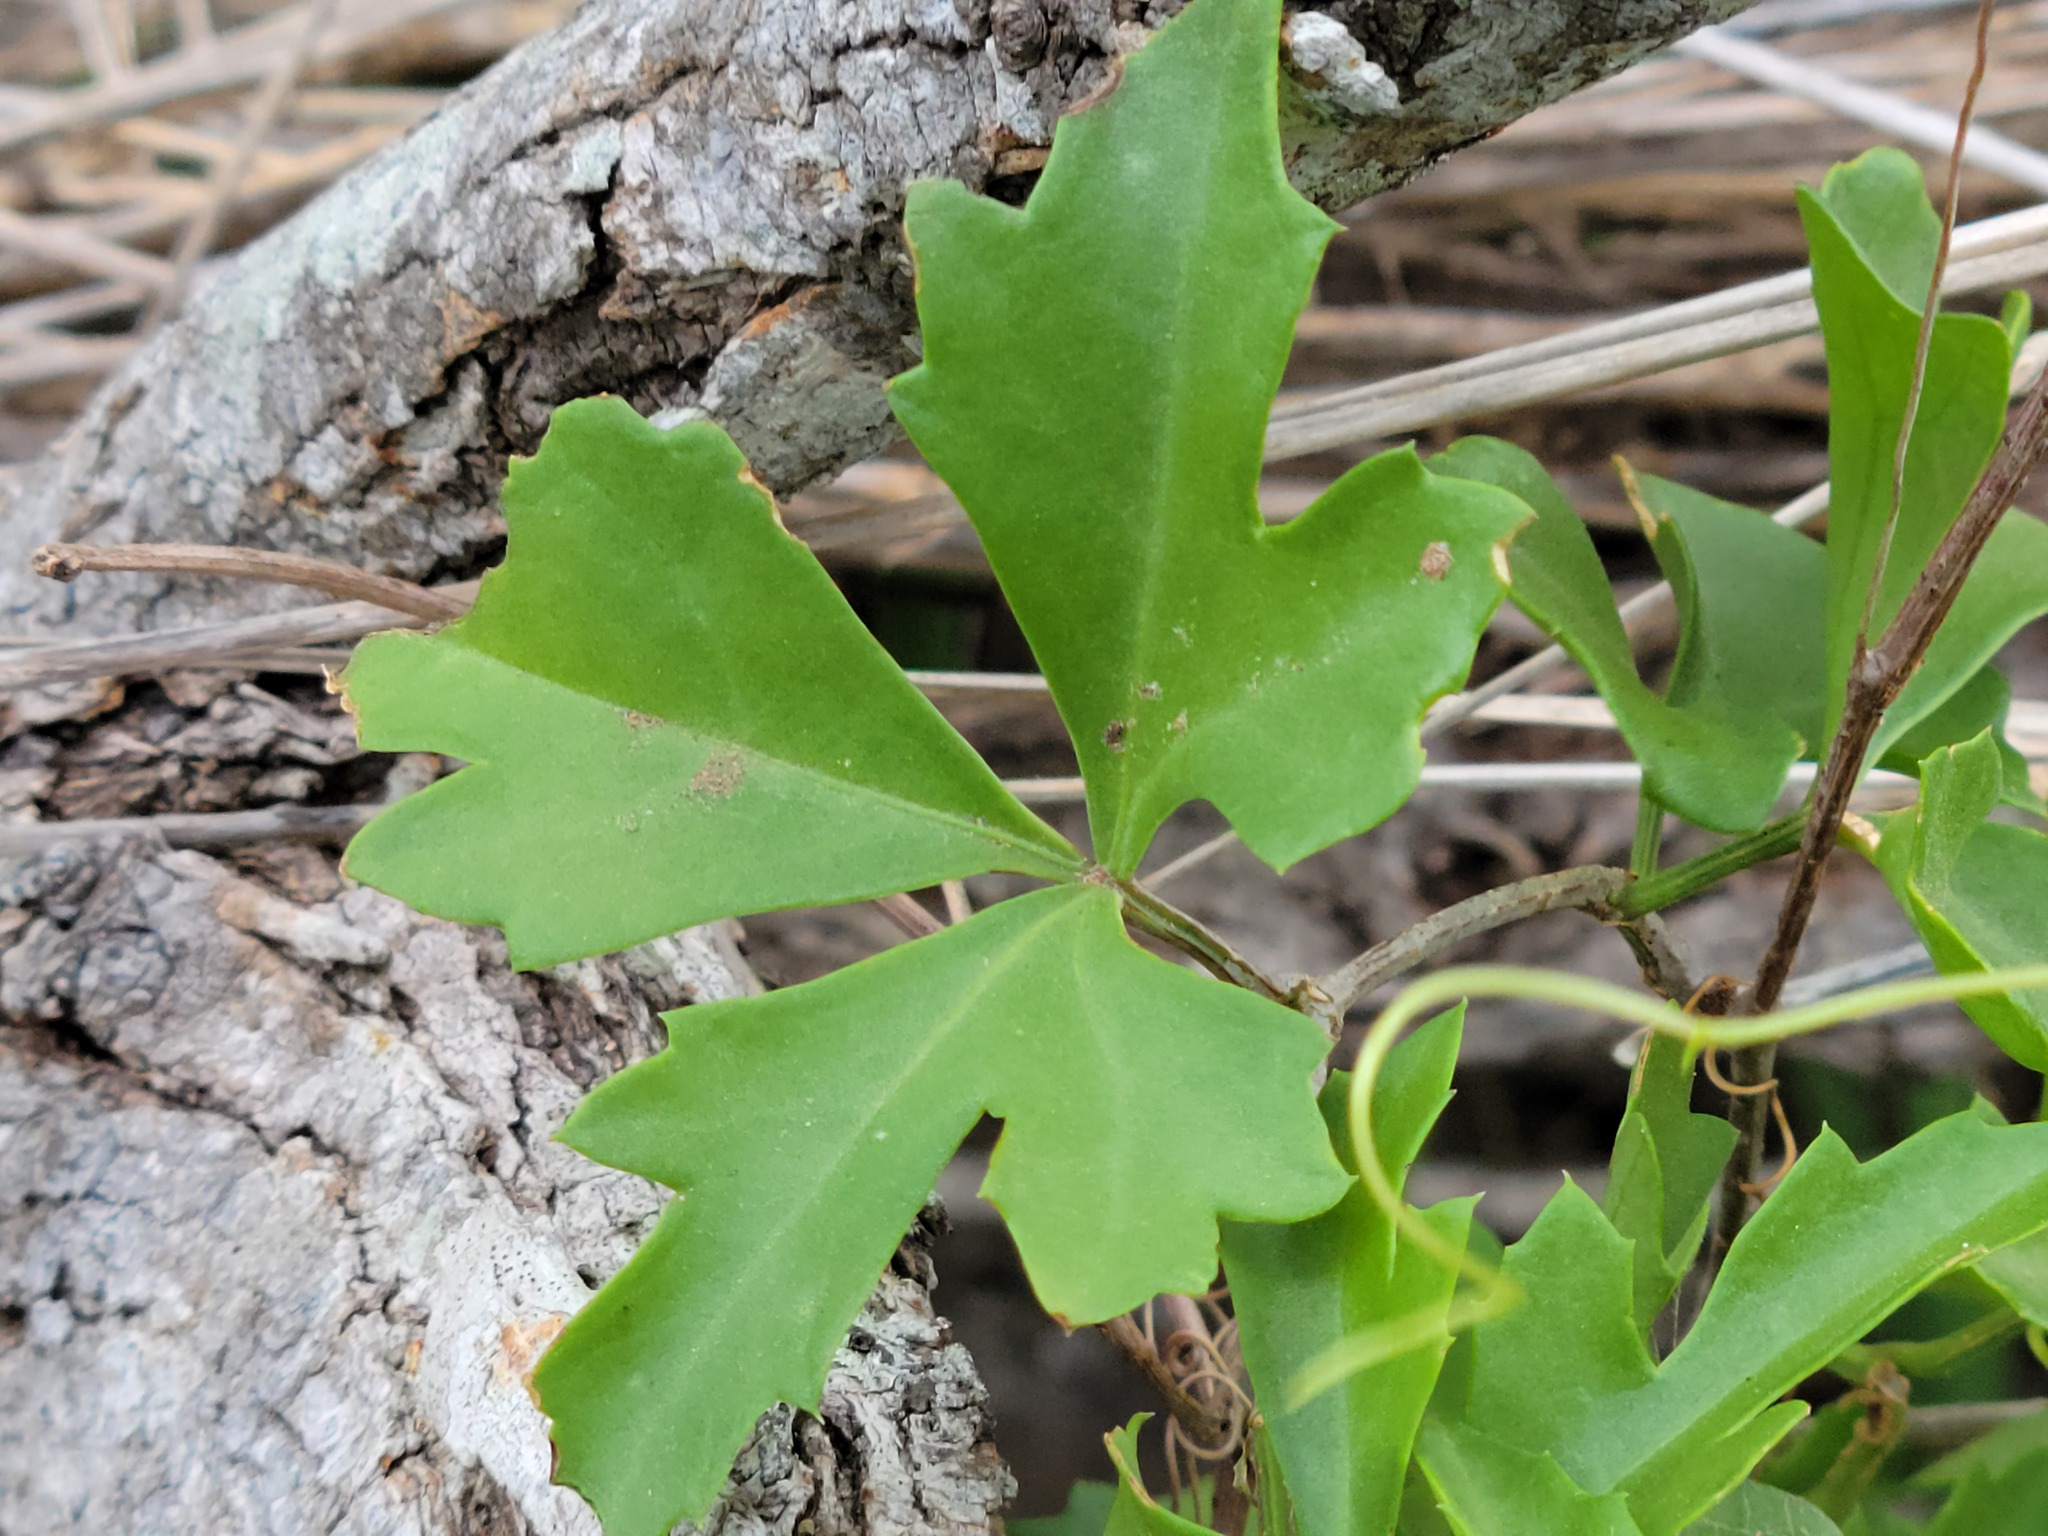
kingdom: Plantae
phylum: Tracheophyta
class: Magnoliopsida
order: Vitales
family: Vitaceae
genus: Cissus
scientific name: Cissus trifoliata
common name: Vine-sorrel
